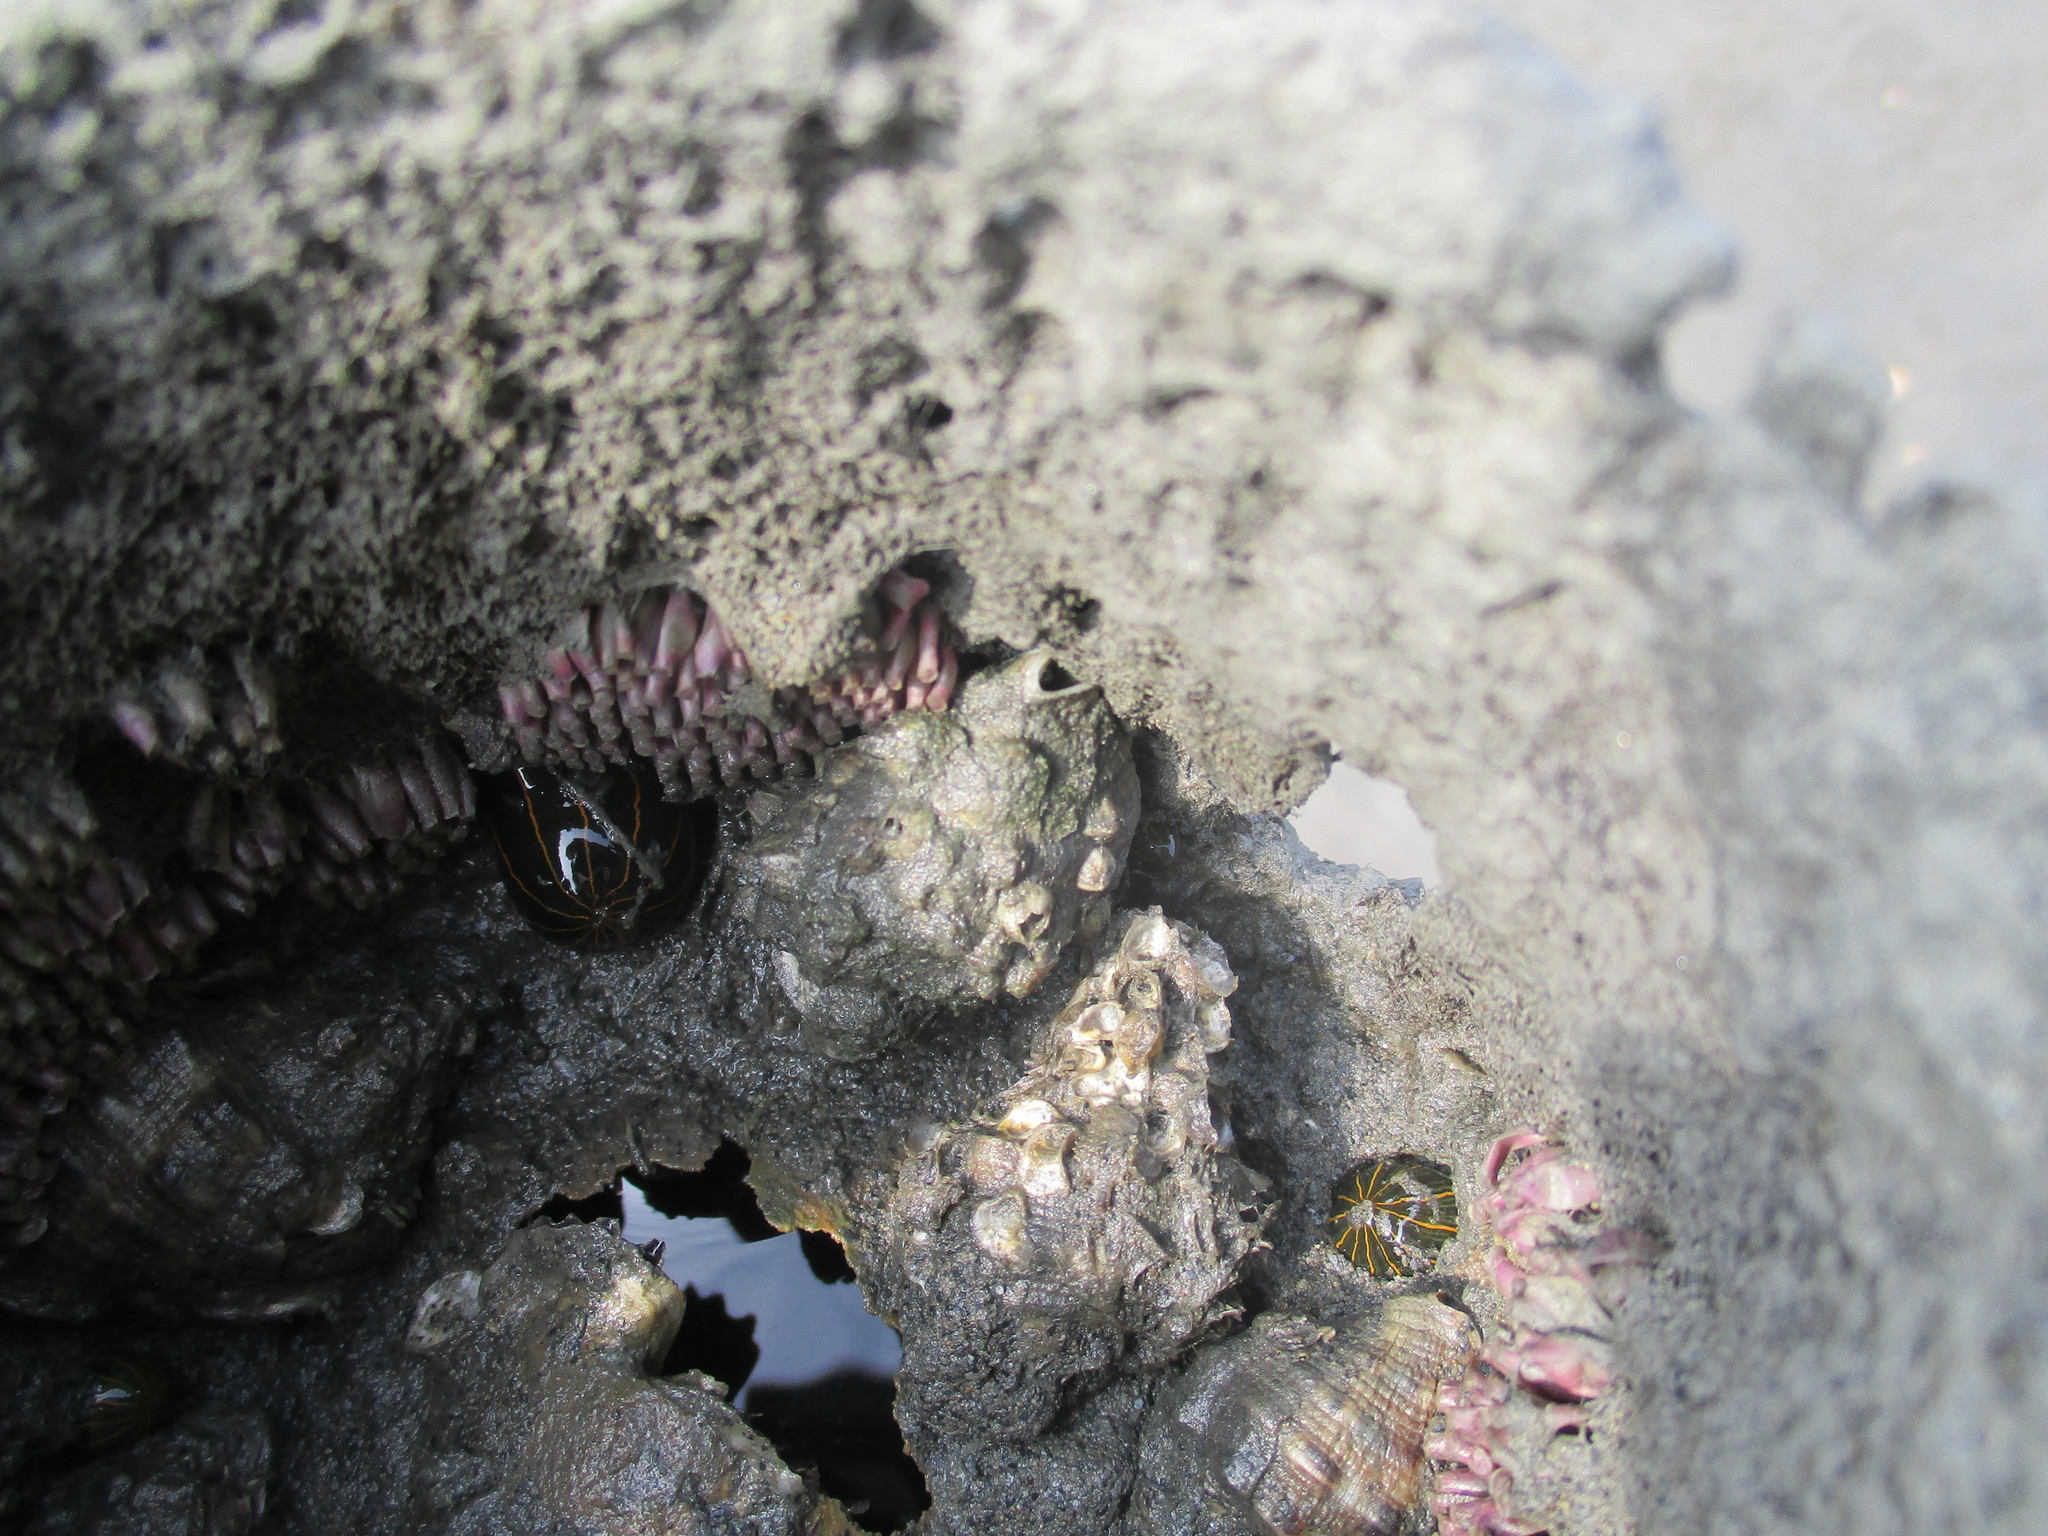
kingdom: Animalia
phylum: Cnidaria
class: Anthozoa
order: Actiniaria
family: Diadumenidae
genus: Diadumene
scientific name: Diadumene lineata
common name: Orange-striped anemone
